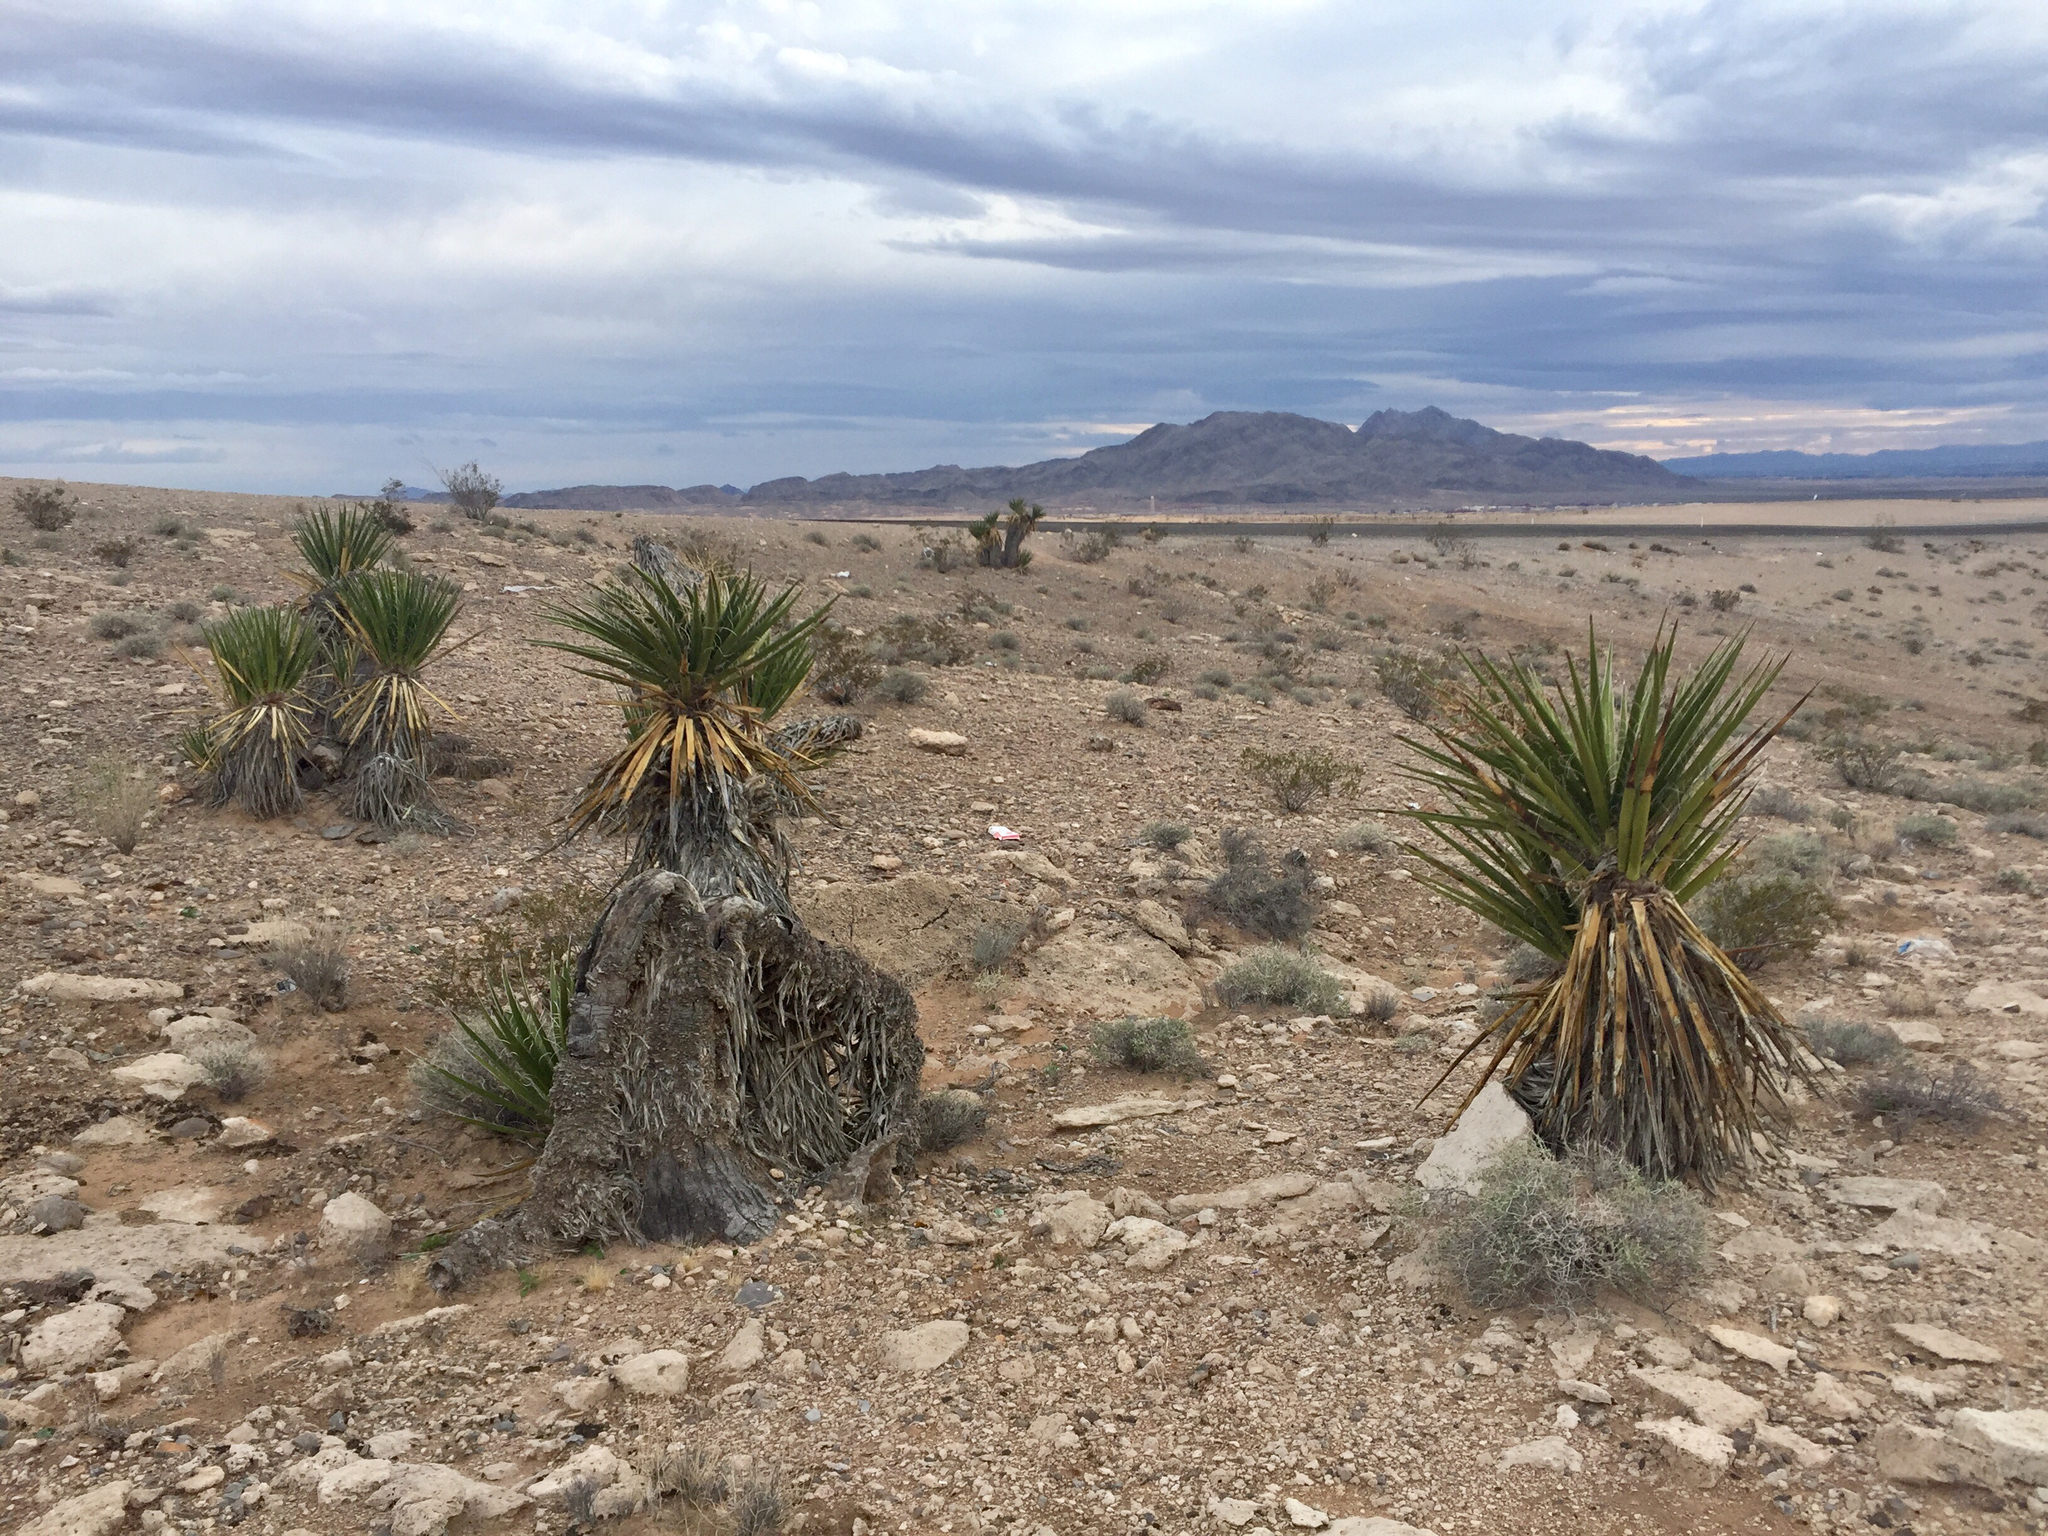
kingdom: Plantae
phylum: Tracheophyta
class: Liliopsida
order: Asparagales
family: Asparagaceae
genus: Yucca
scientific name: Yucca schidigera
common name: Mojave yucca
